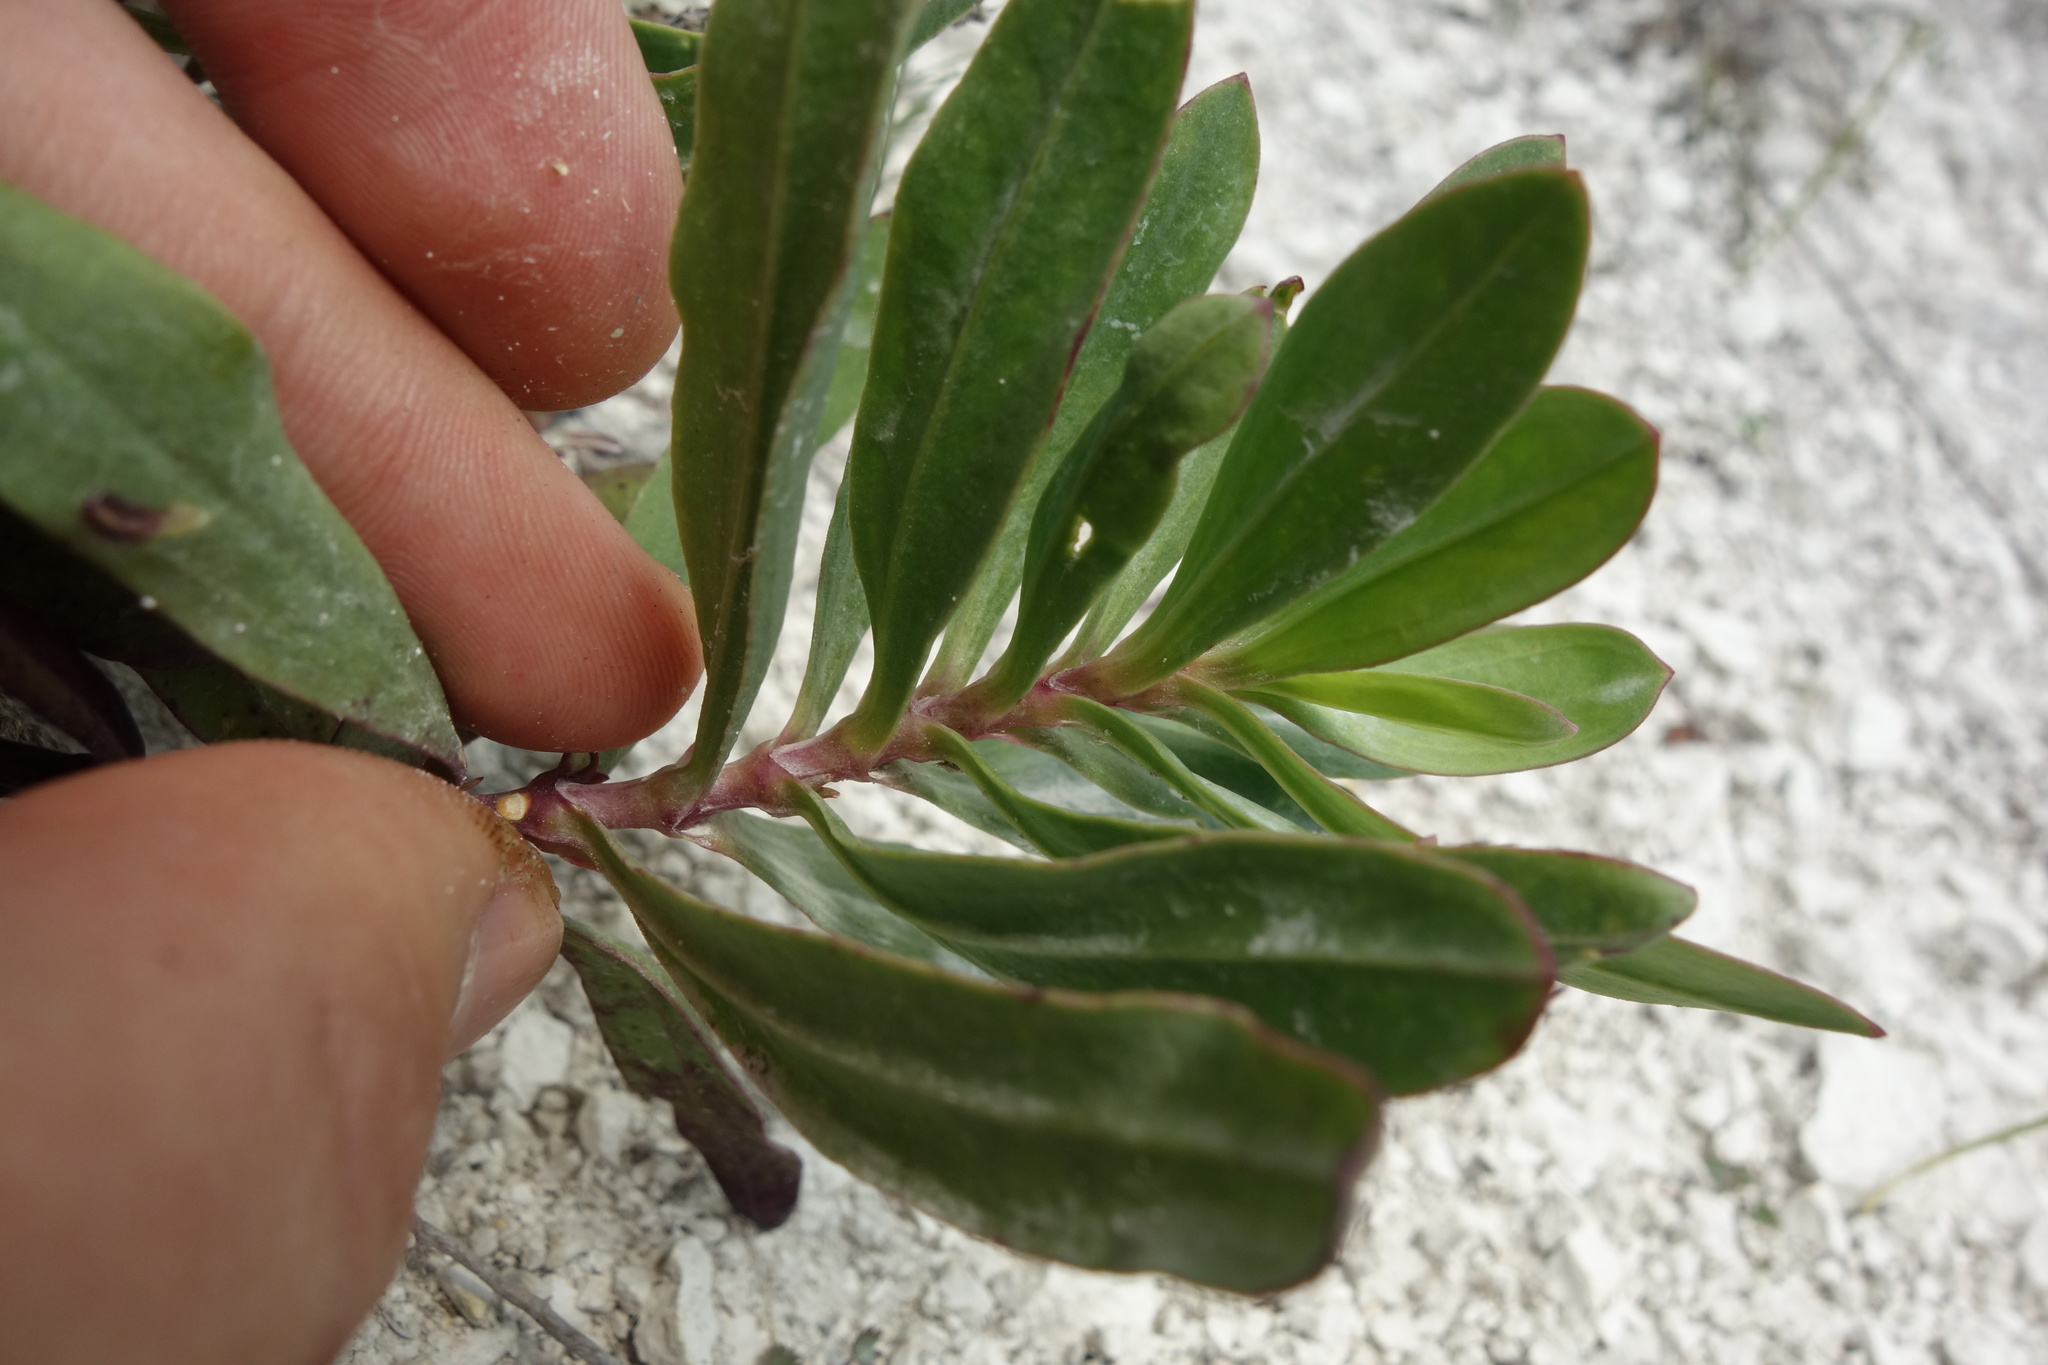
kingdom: Plantae
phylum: Tracheophyta
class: Magnoliopsida
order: Caryophyllales
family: Caryophyllaceae
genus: Gypsophila
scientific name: Gypsophila altissima
